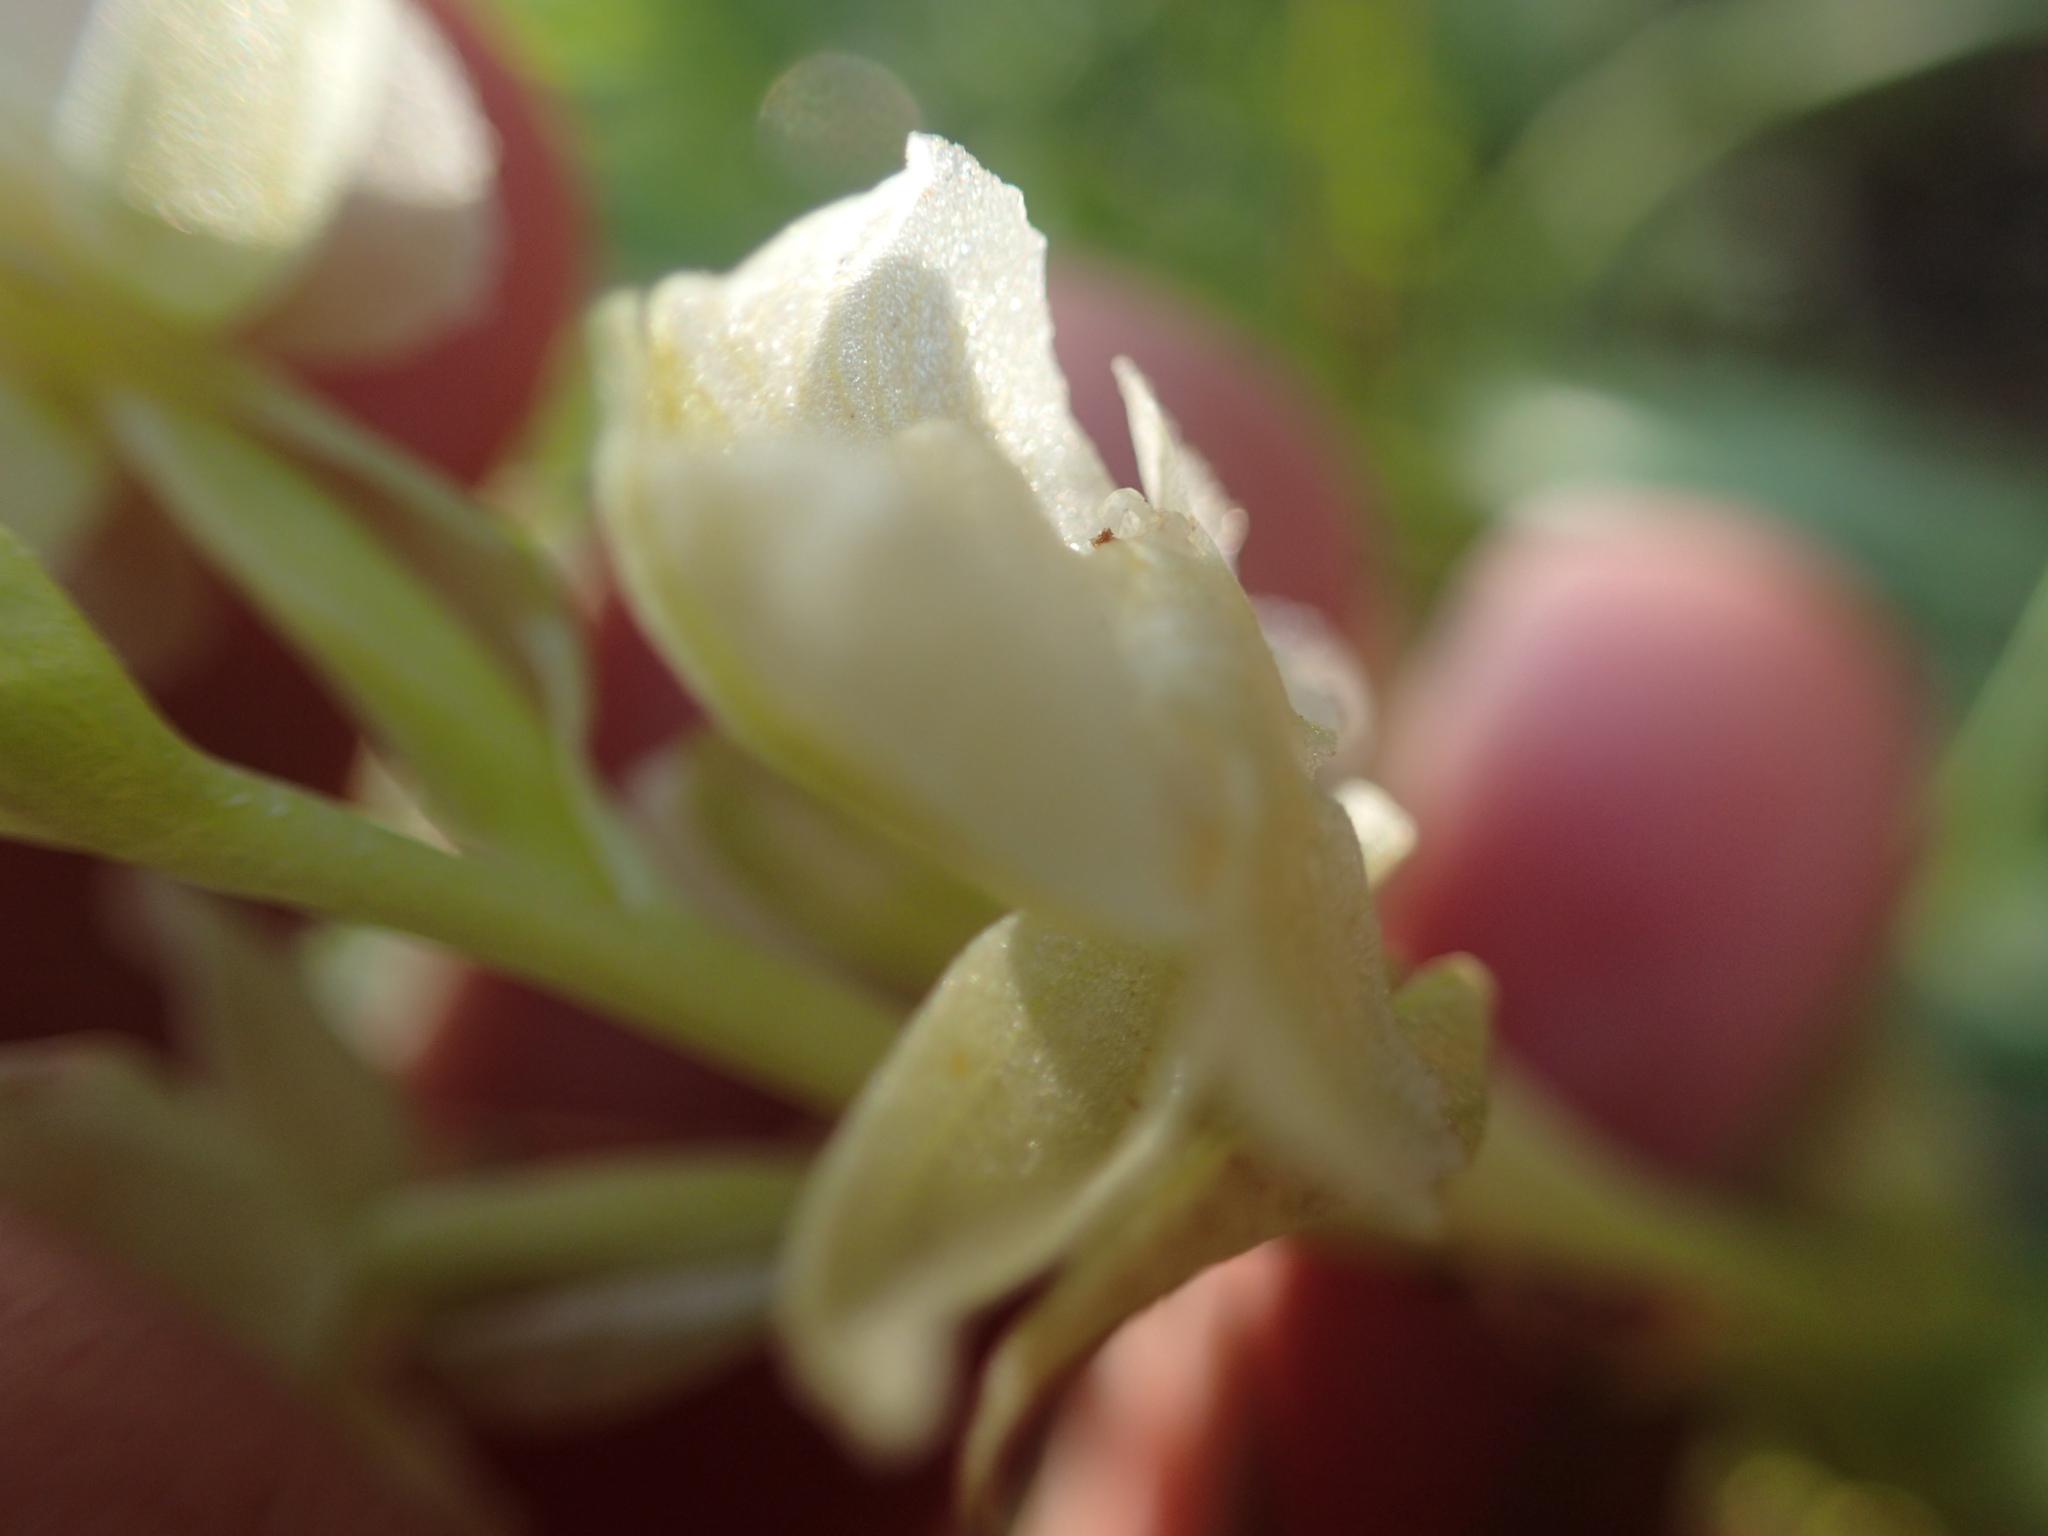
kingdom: Plantae
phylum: Tracheophyta
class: Liliopsida
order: Asparagales
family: Orchidaceae
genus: Pterygodium
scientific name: Pterygodium pentherianum
